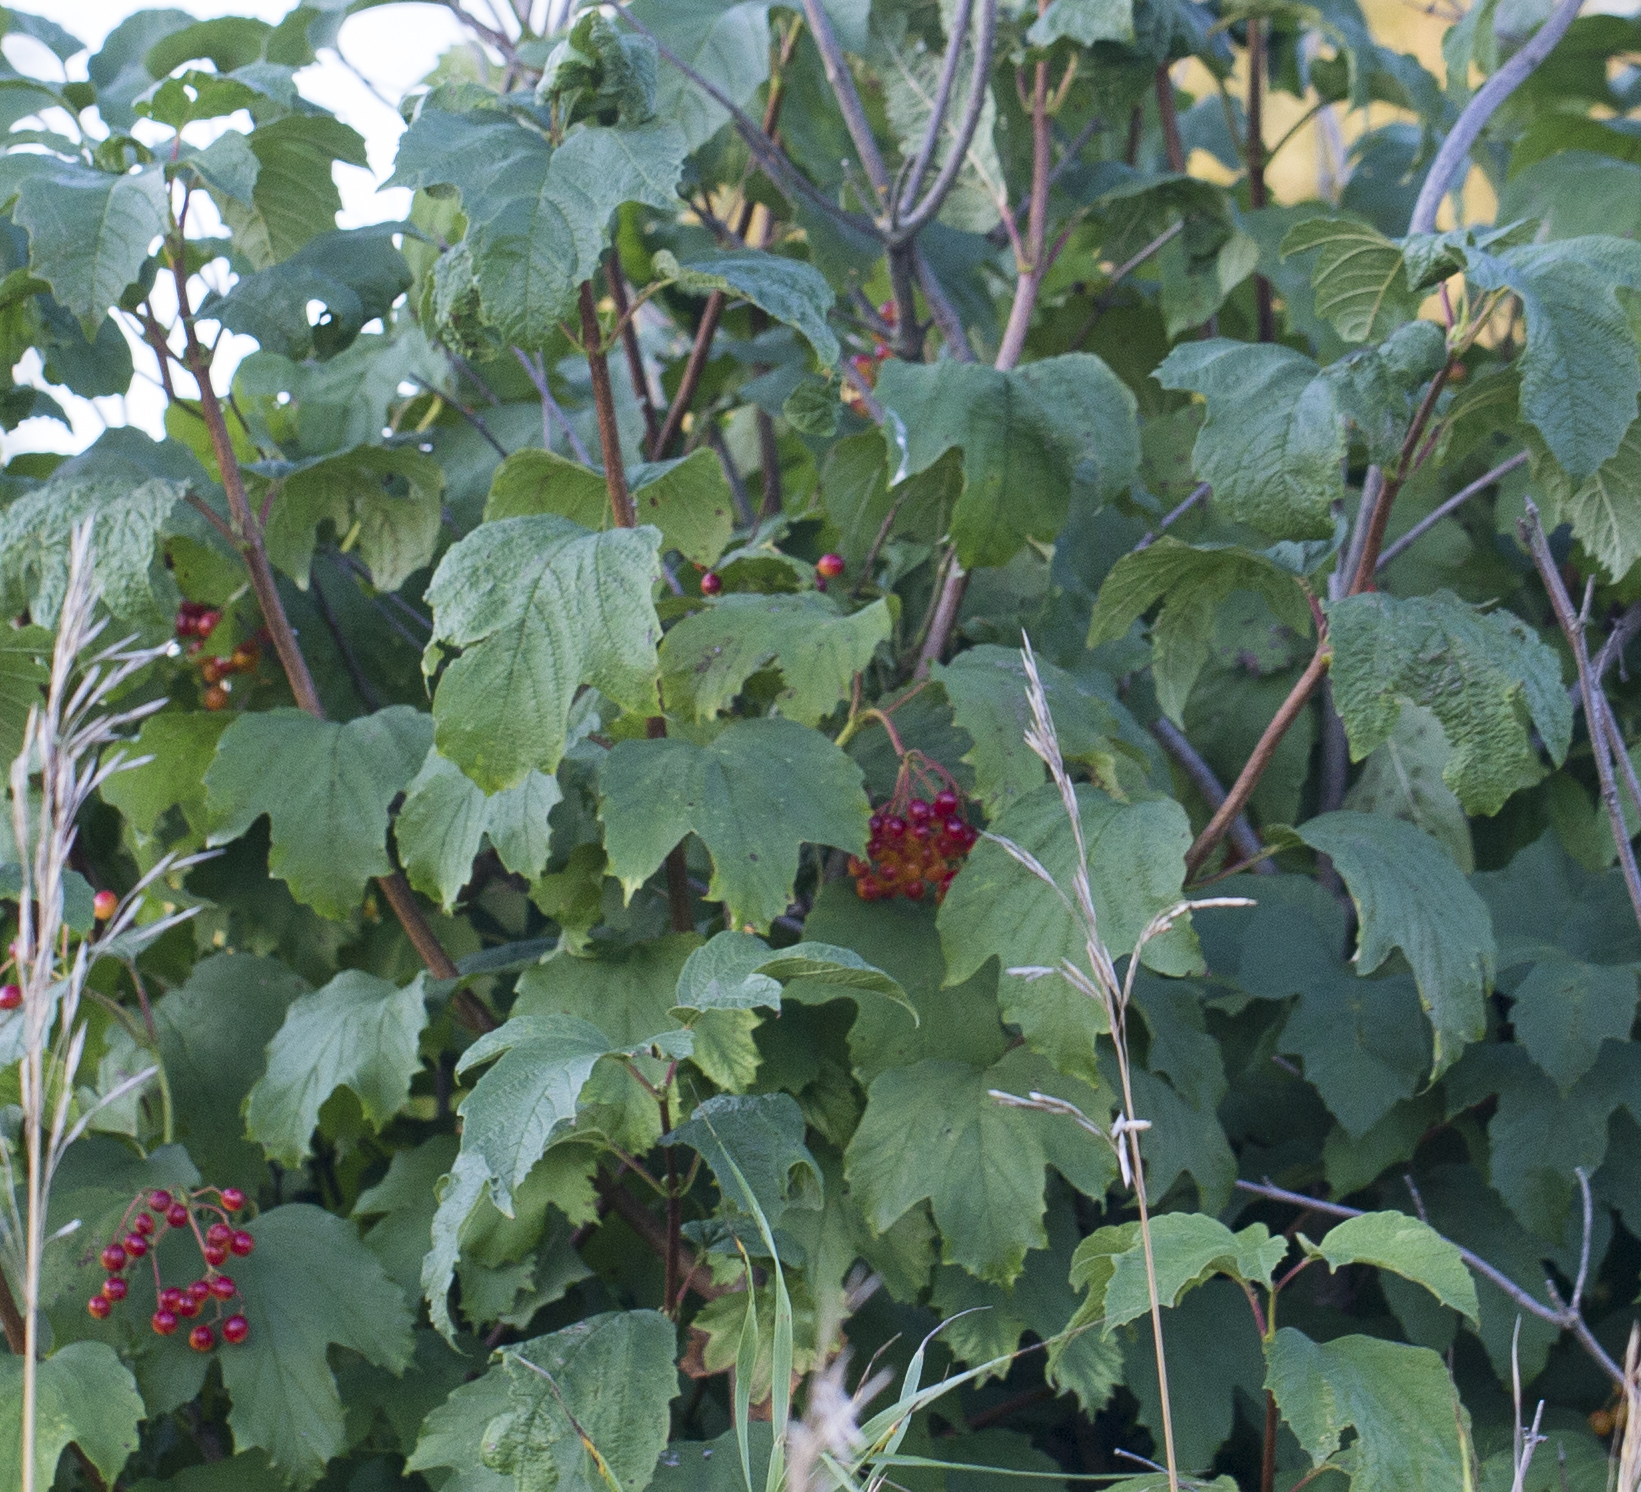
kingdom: Plantae
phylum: Tracheophyta
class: Magnoliopsida
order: Dipsacales
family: Viburnaceae
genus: Viburnum
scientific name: Viburnum opulus
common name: Guelder-rose
